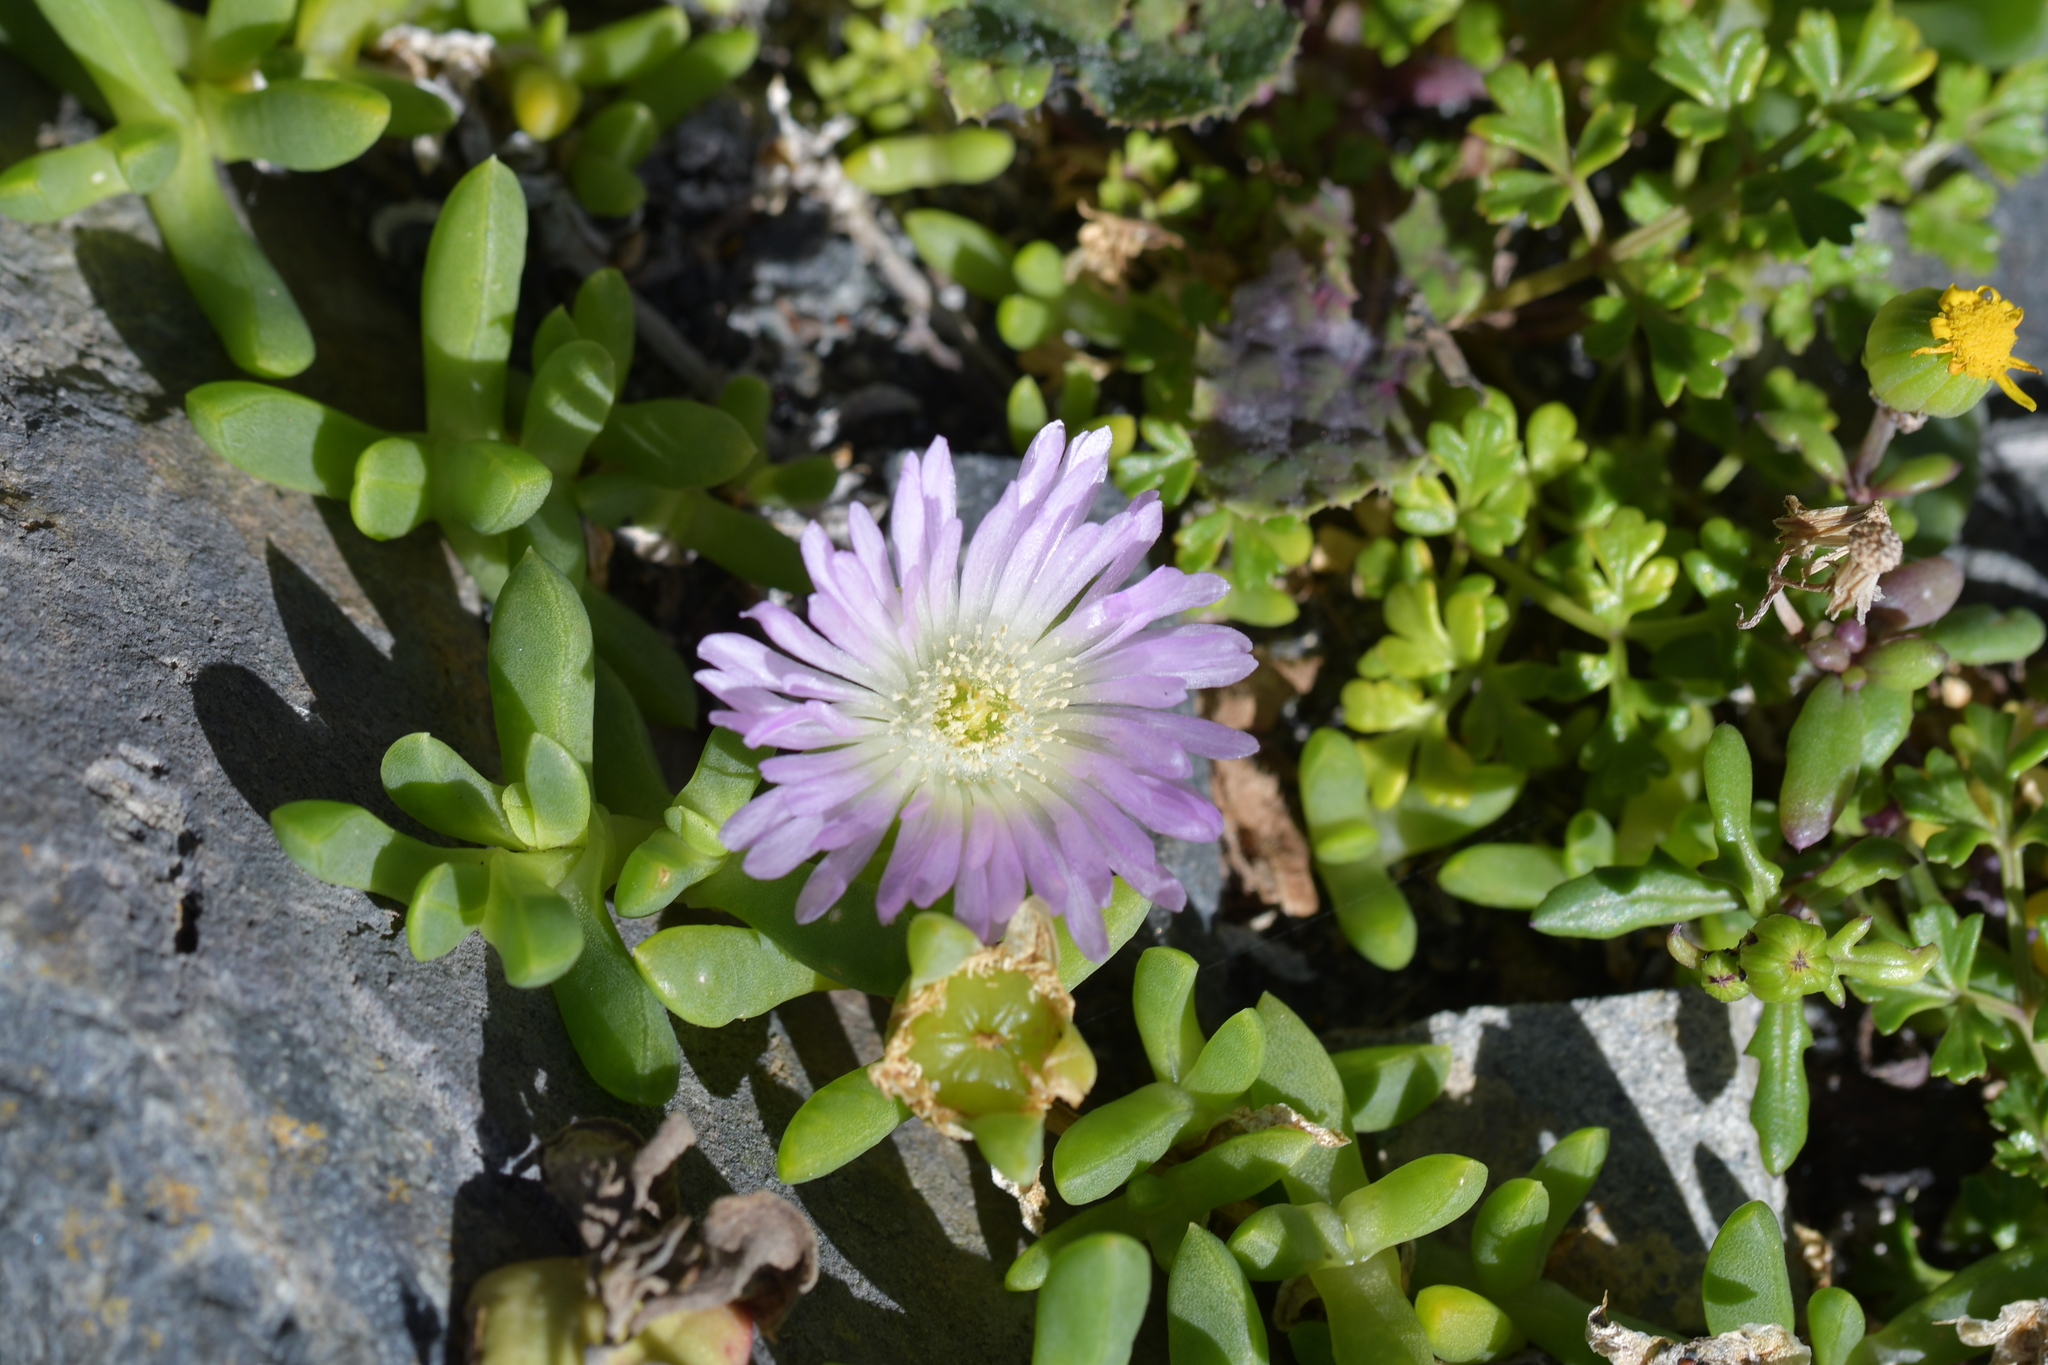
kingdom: Plantae
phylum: Tracheophyta
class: Magnoliopsida
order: Caryophyllales
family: Aizoaceae
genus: Disphyma
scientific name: Disphyma australe
